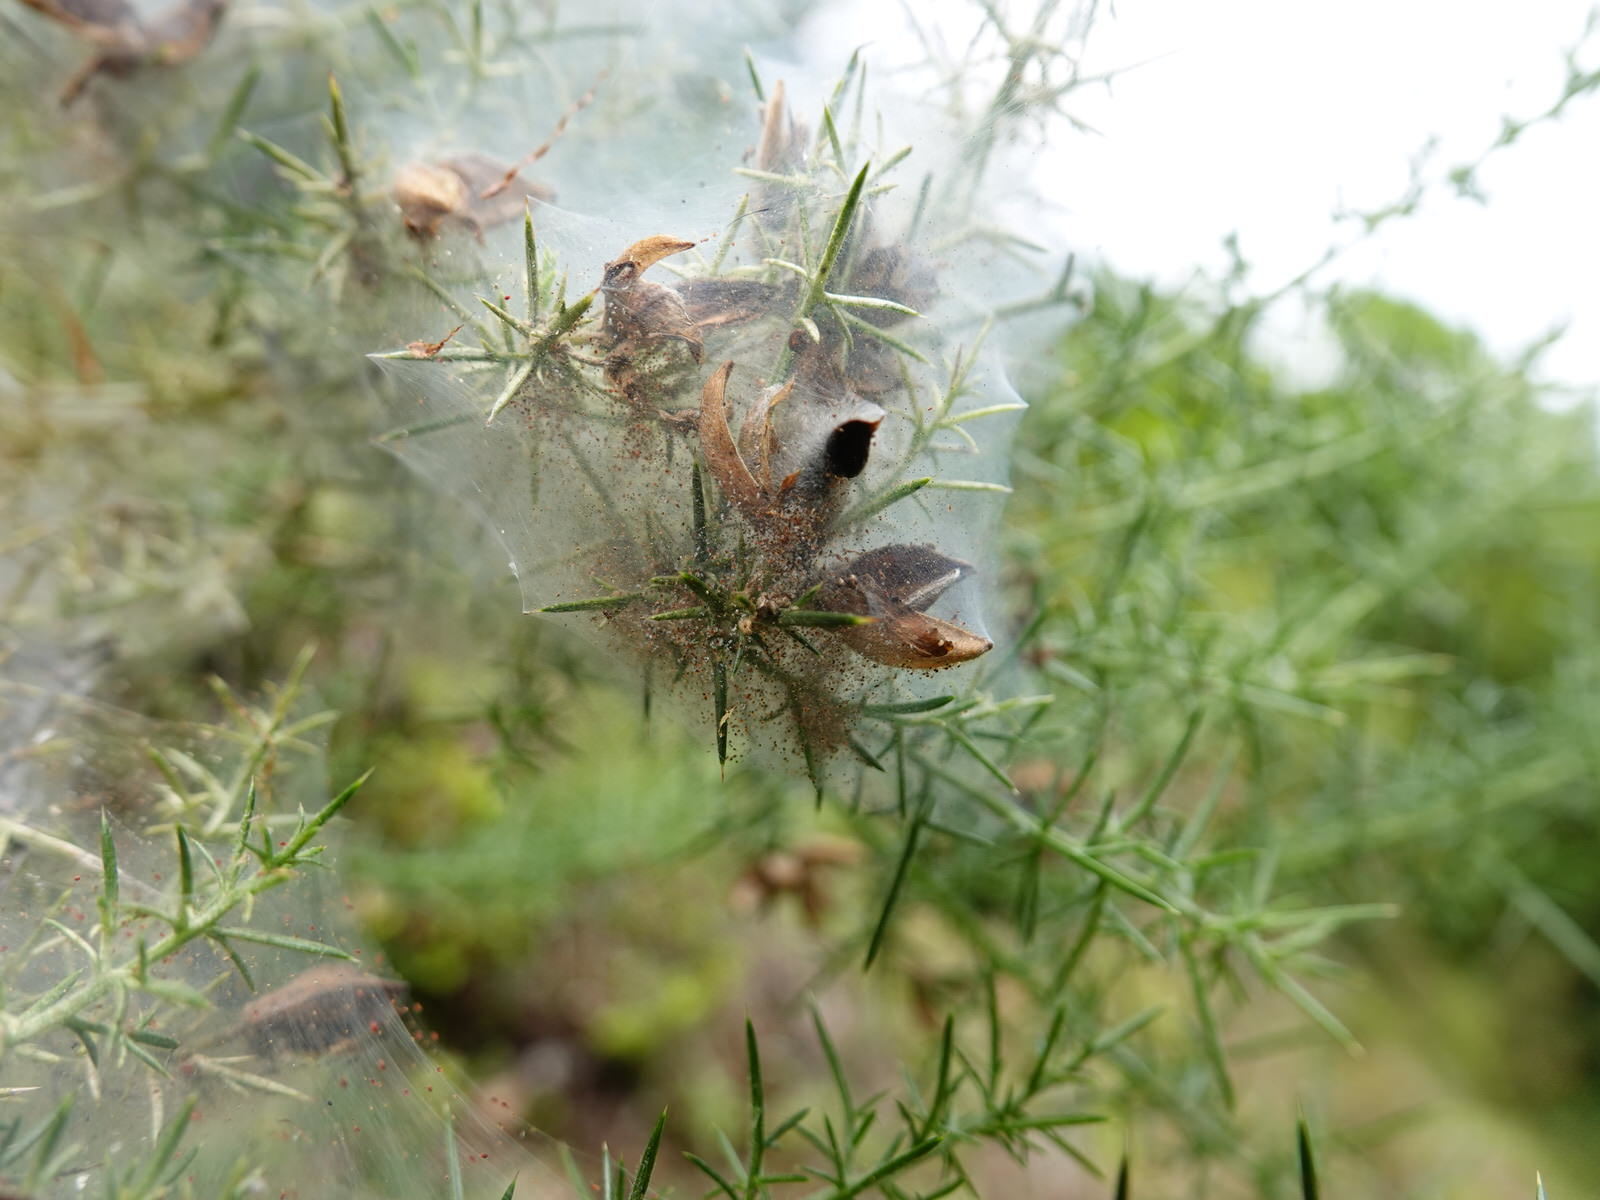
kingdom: Animalia
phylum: Arthropoda
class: Arachnida
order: Trombidiformes
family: Tetranychidae
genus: Tetranychus
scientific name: Tetranychus lintearius
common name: Gorse spider mite
